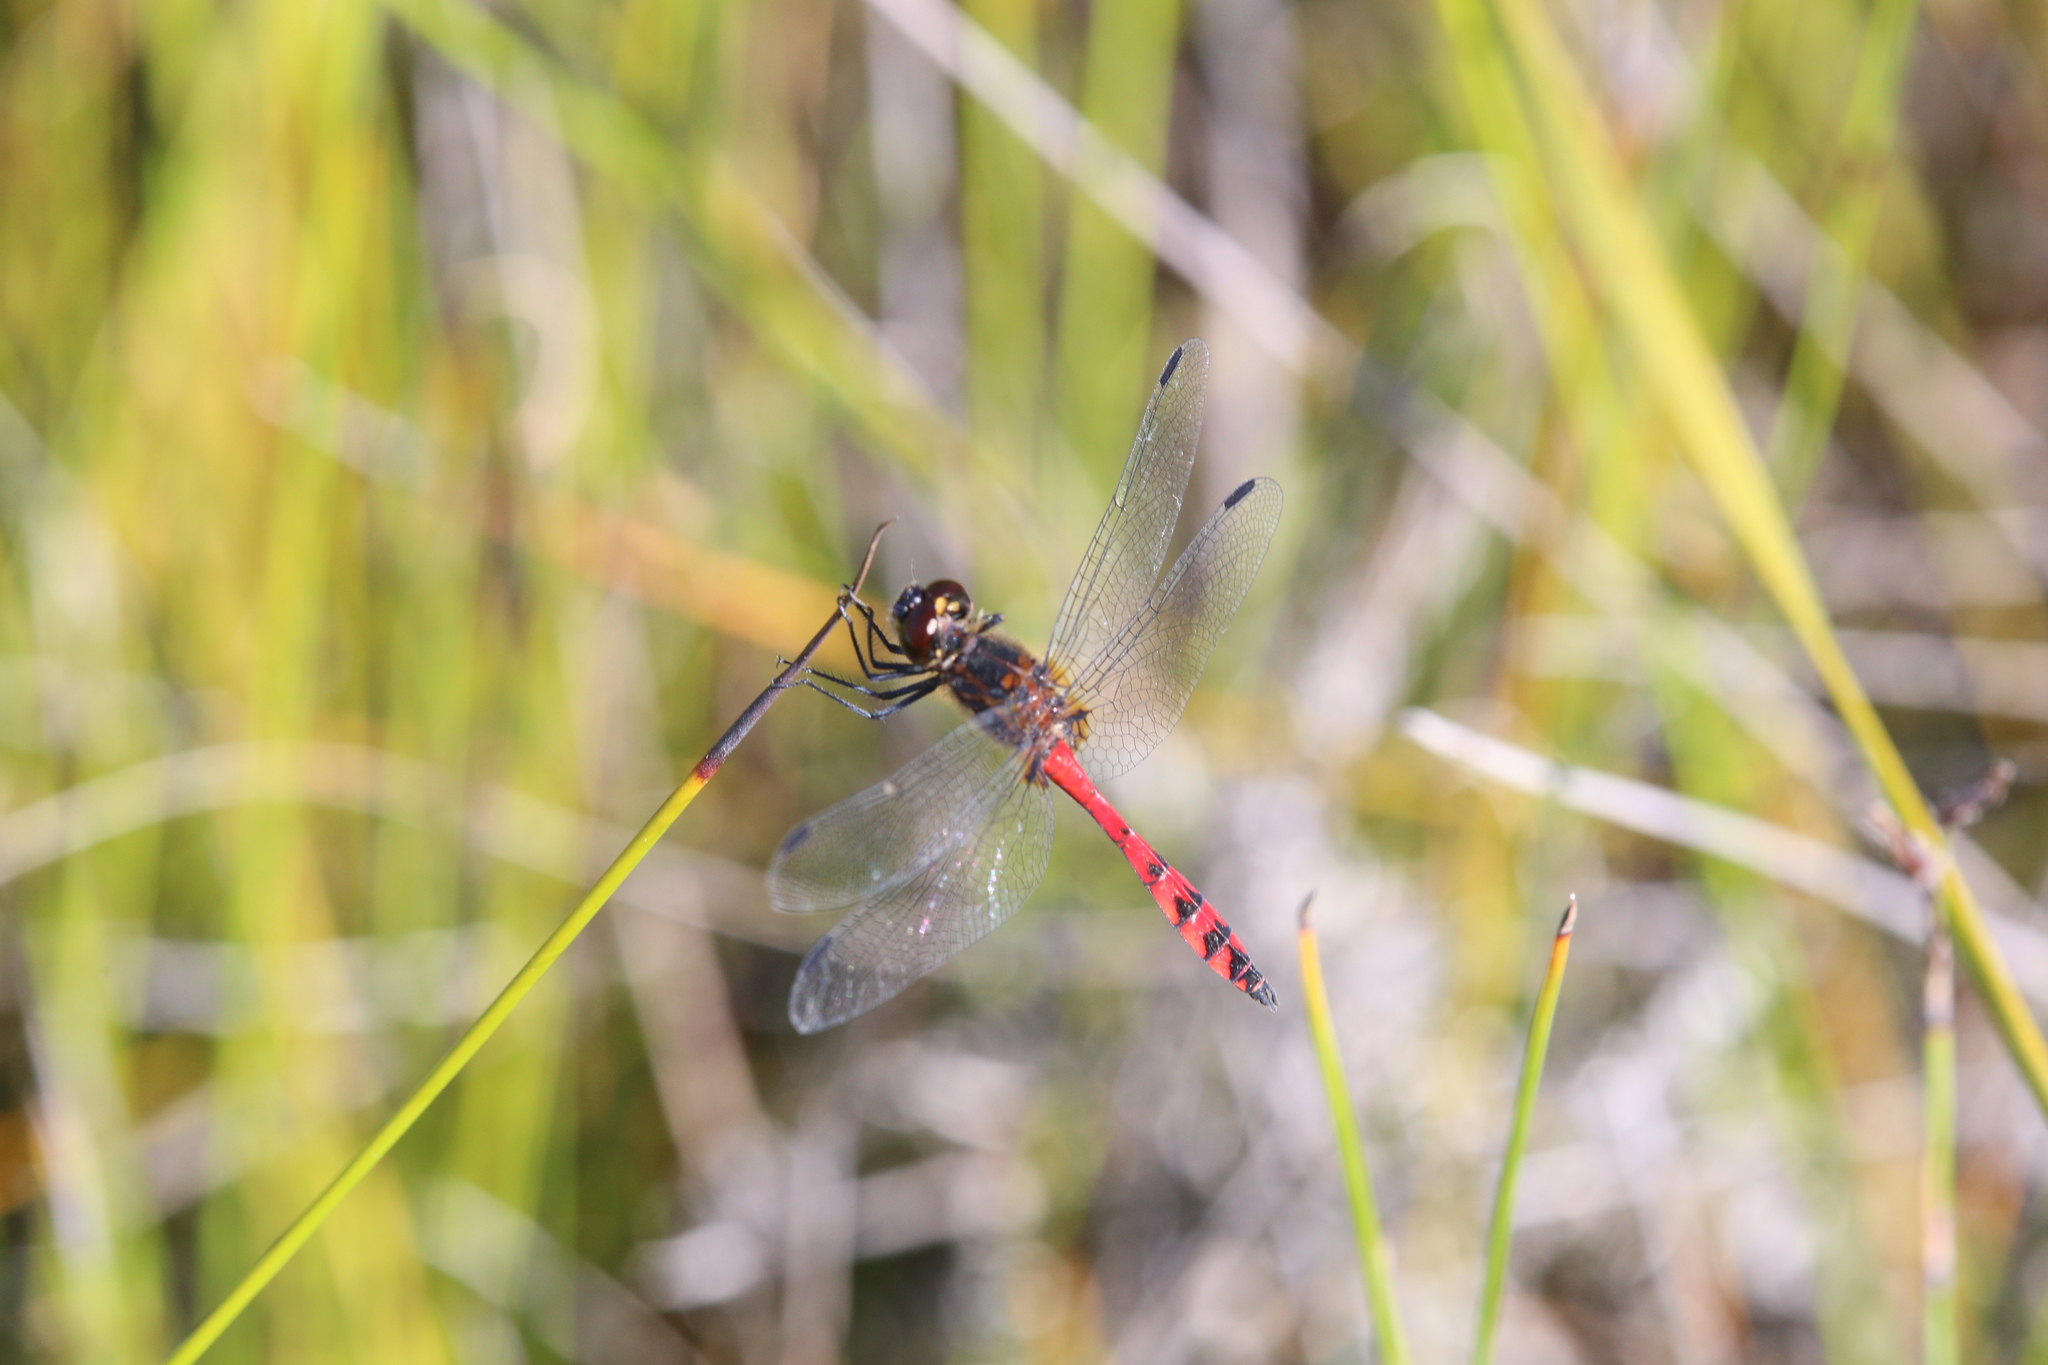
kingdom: Animalia
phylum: Arthropoda
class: Insecta
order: Odonata
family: Libellulidae
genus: Austrothemis
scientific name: Austrothemis nigrescens
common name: Swamp flat-tail
